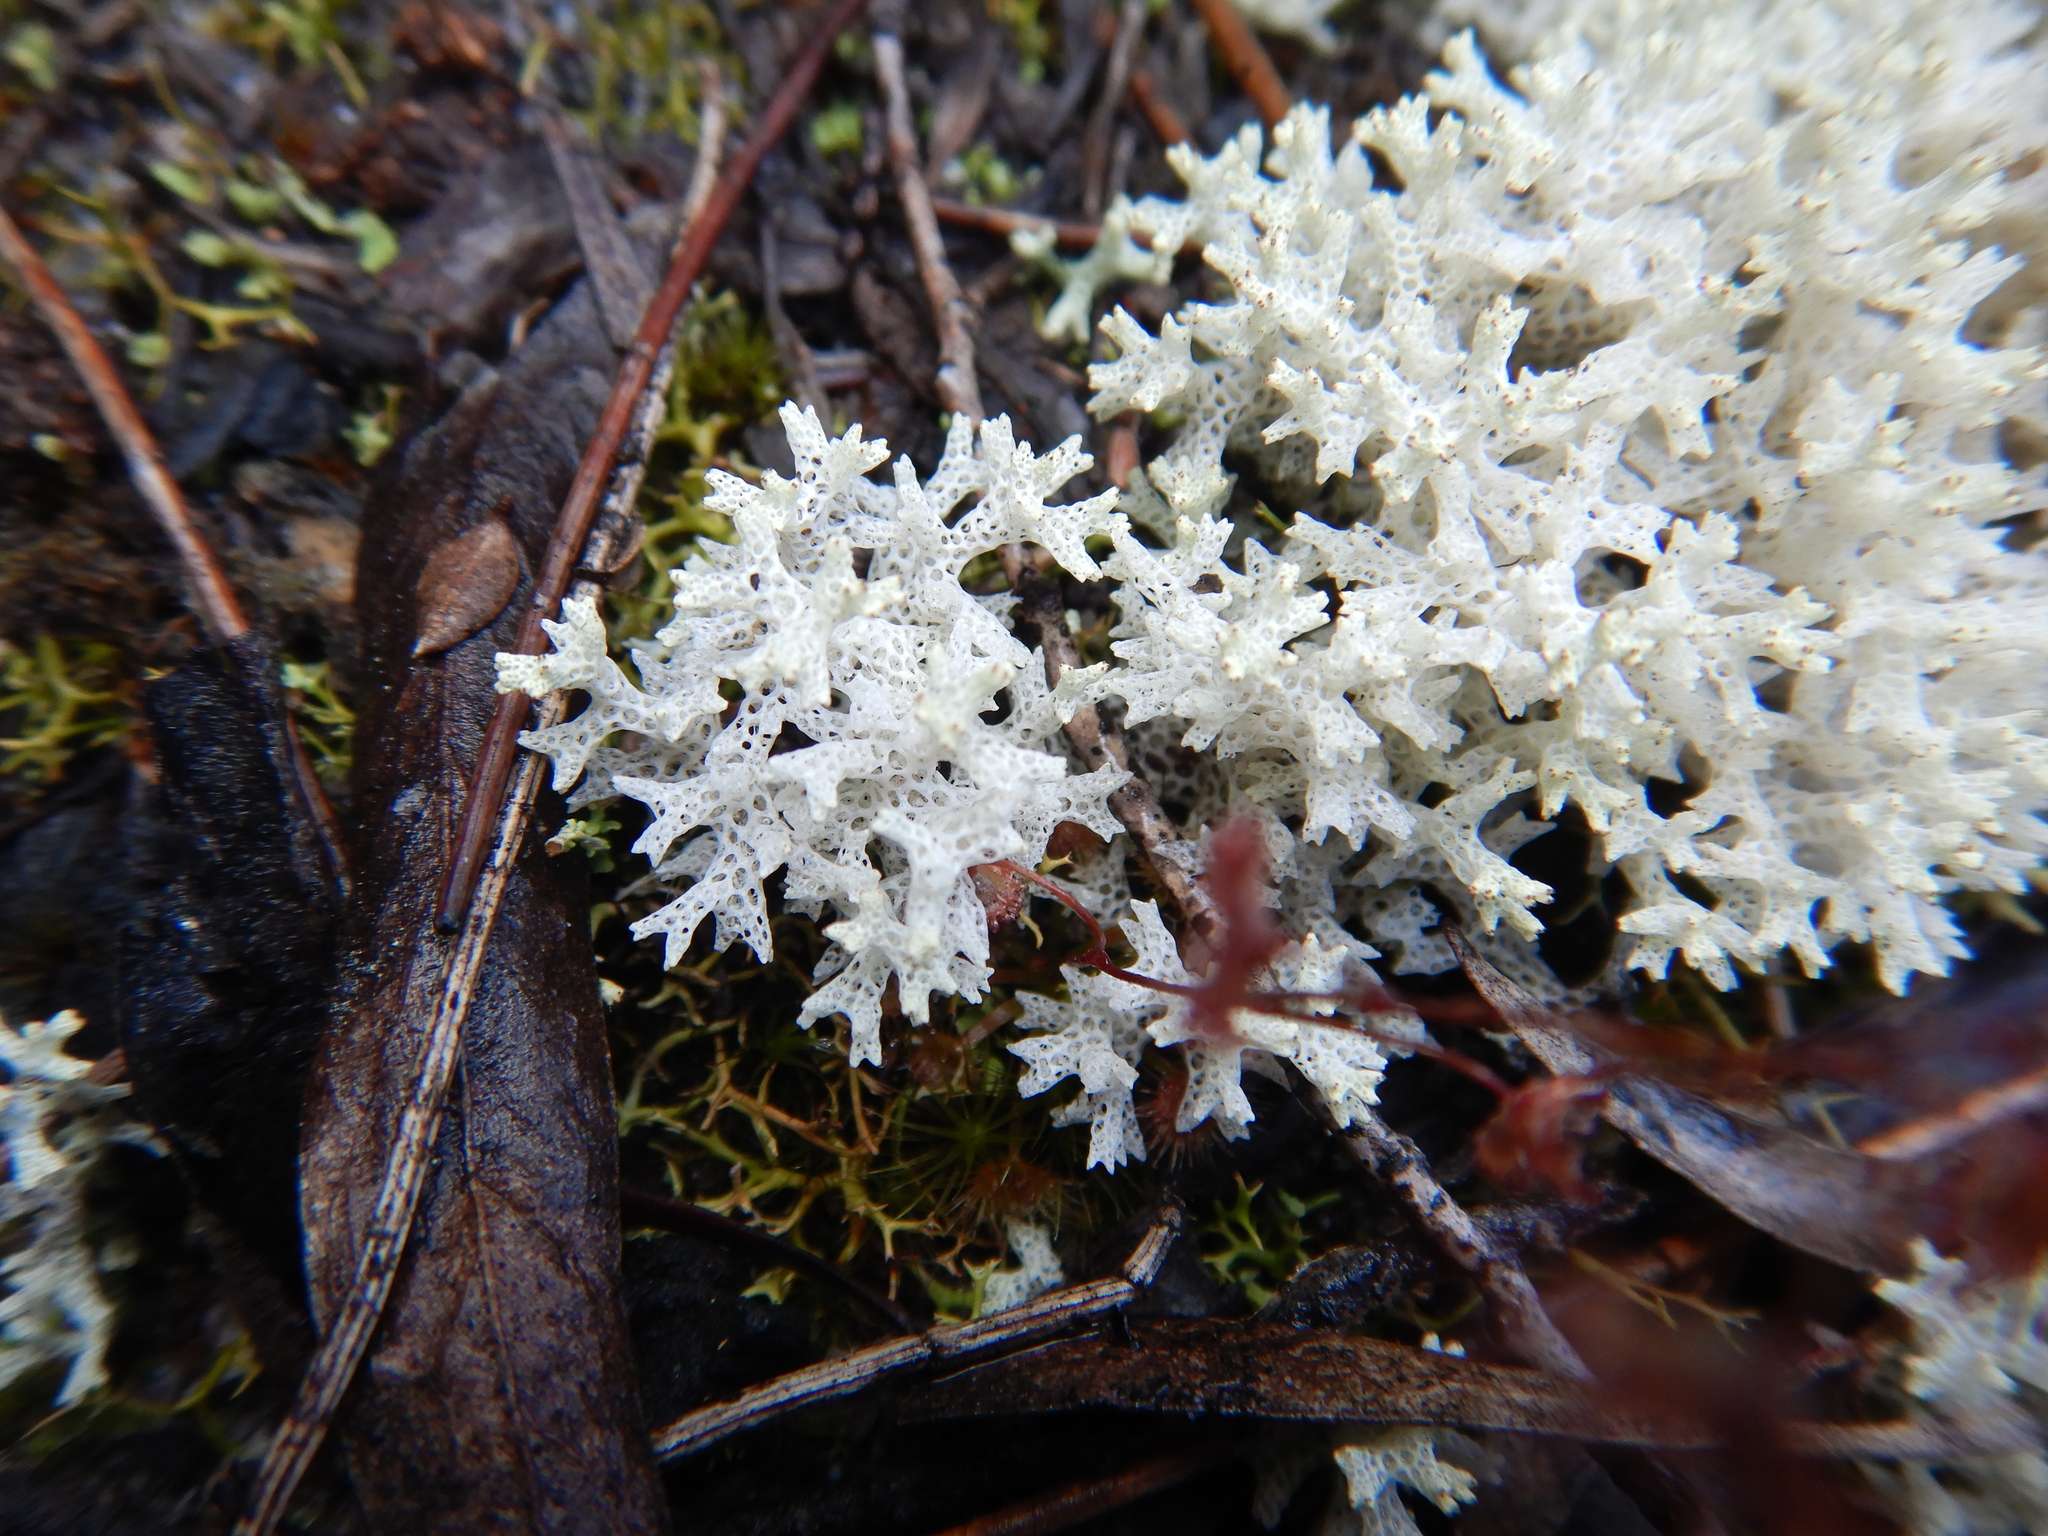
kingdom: Fungi
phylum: Ascomycota
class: Lecanoromycetes
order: Lecanorales
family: Cladoniaceae
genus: Pulchrocladia
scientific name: Pulchrocladia retipora
